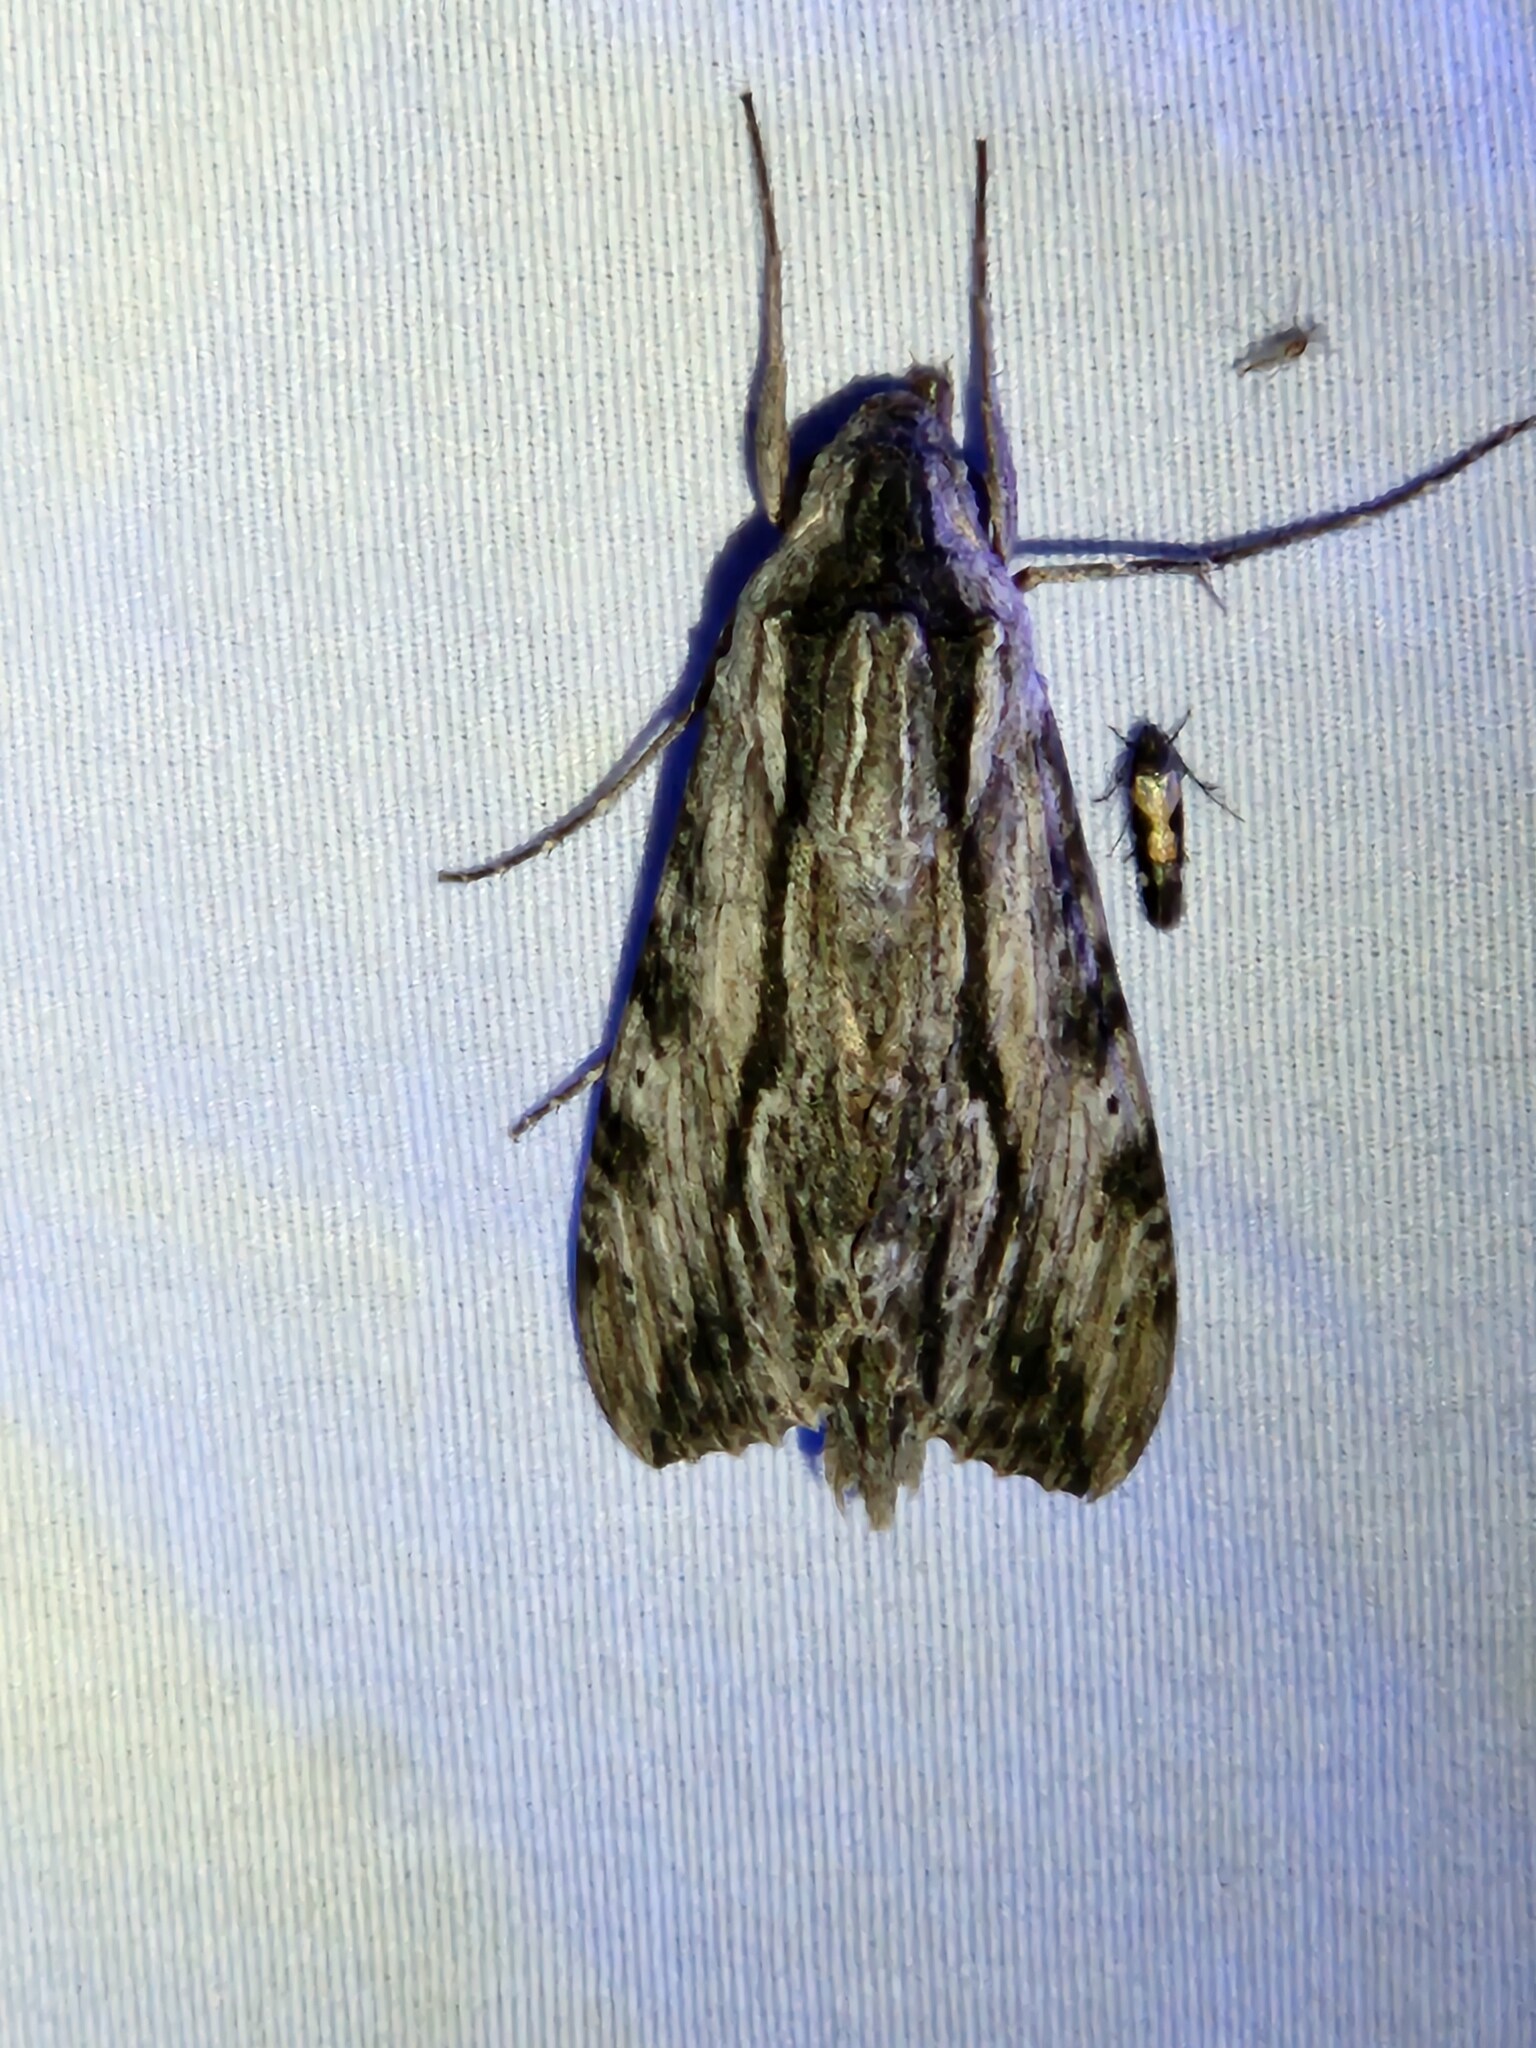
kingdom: Animalia
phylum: Arthropoda
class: Insecta
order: Lepidoptera
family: Sphingidae
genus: Erinnyis
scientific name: Erinnyis obscura
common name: Obscure sphinx
